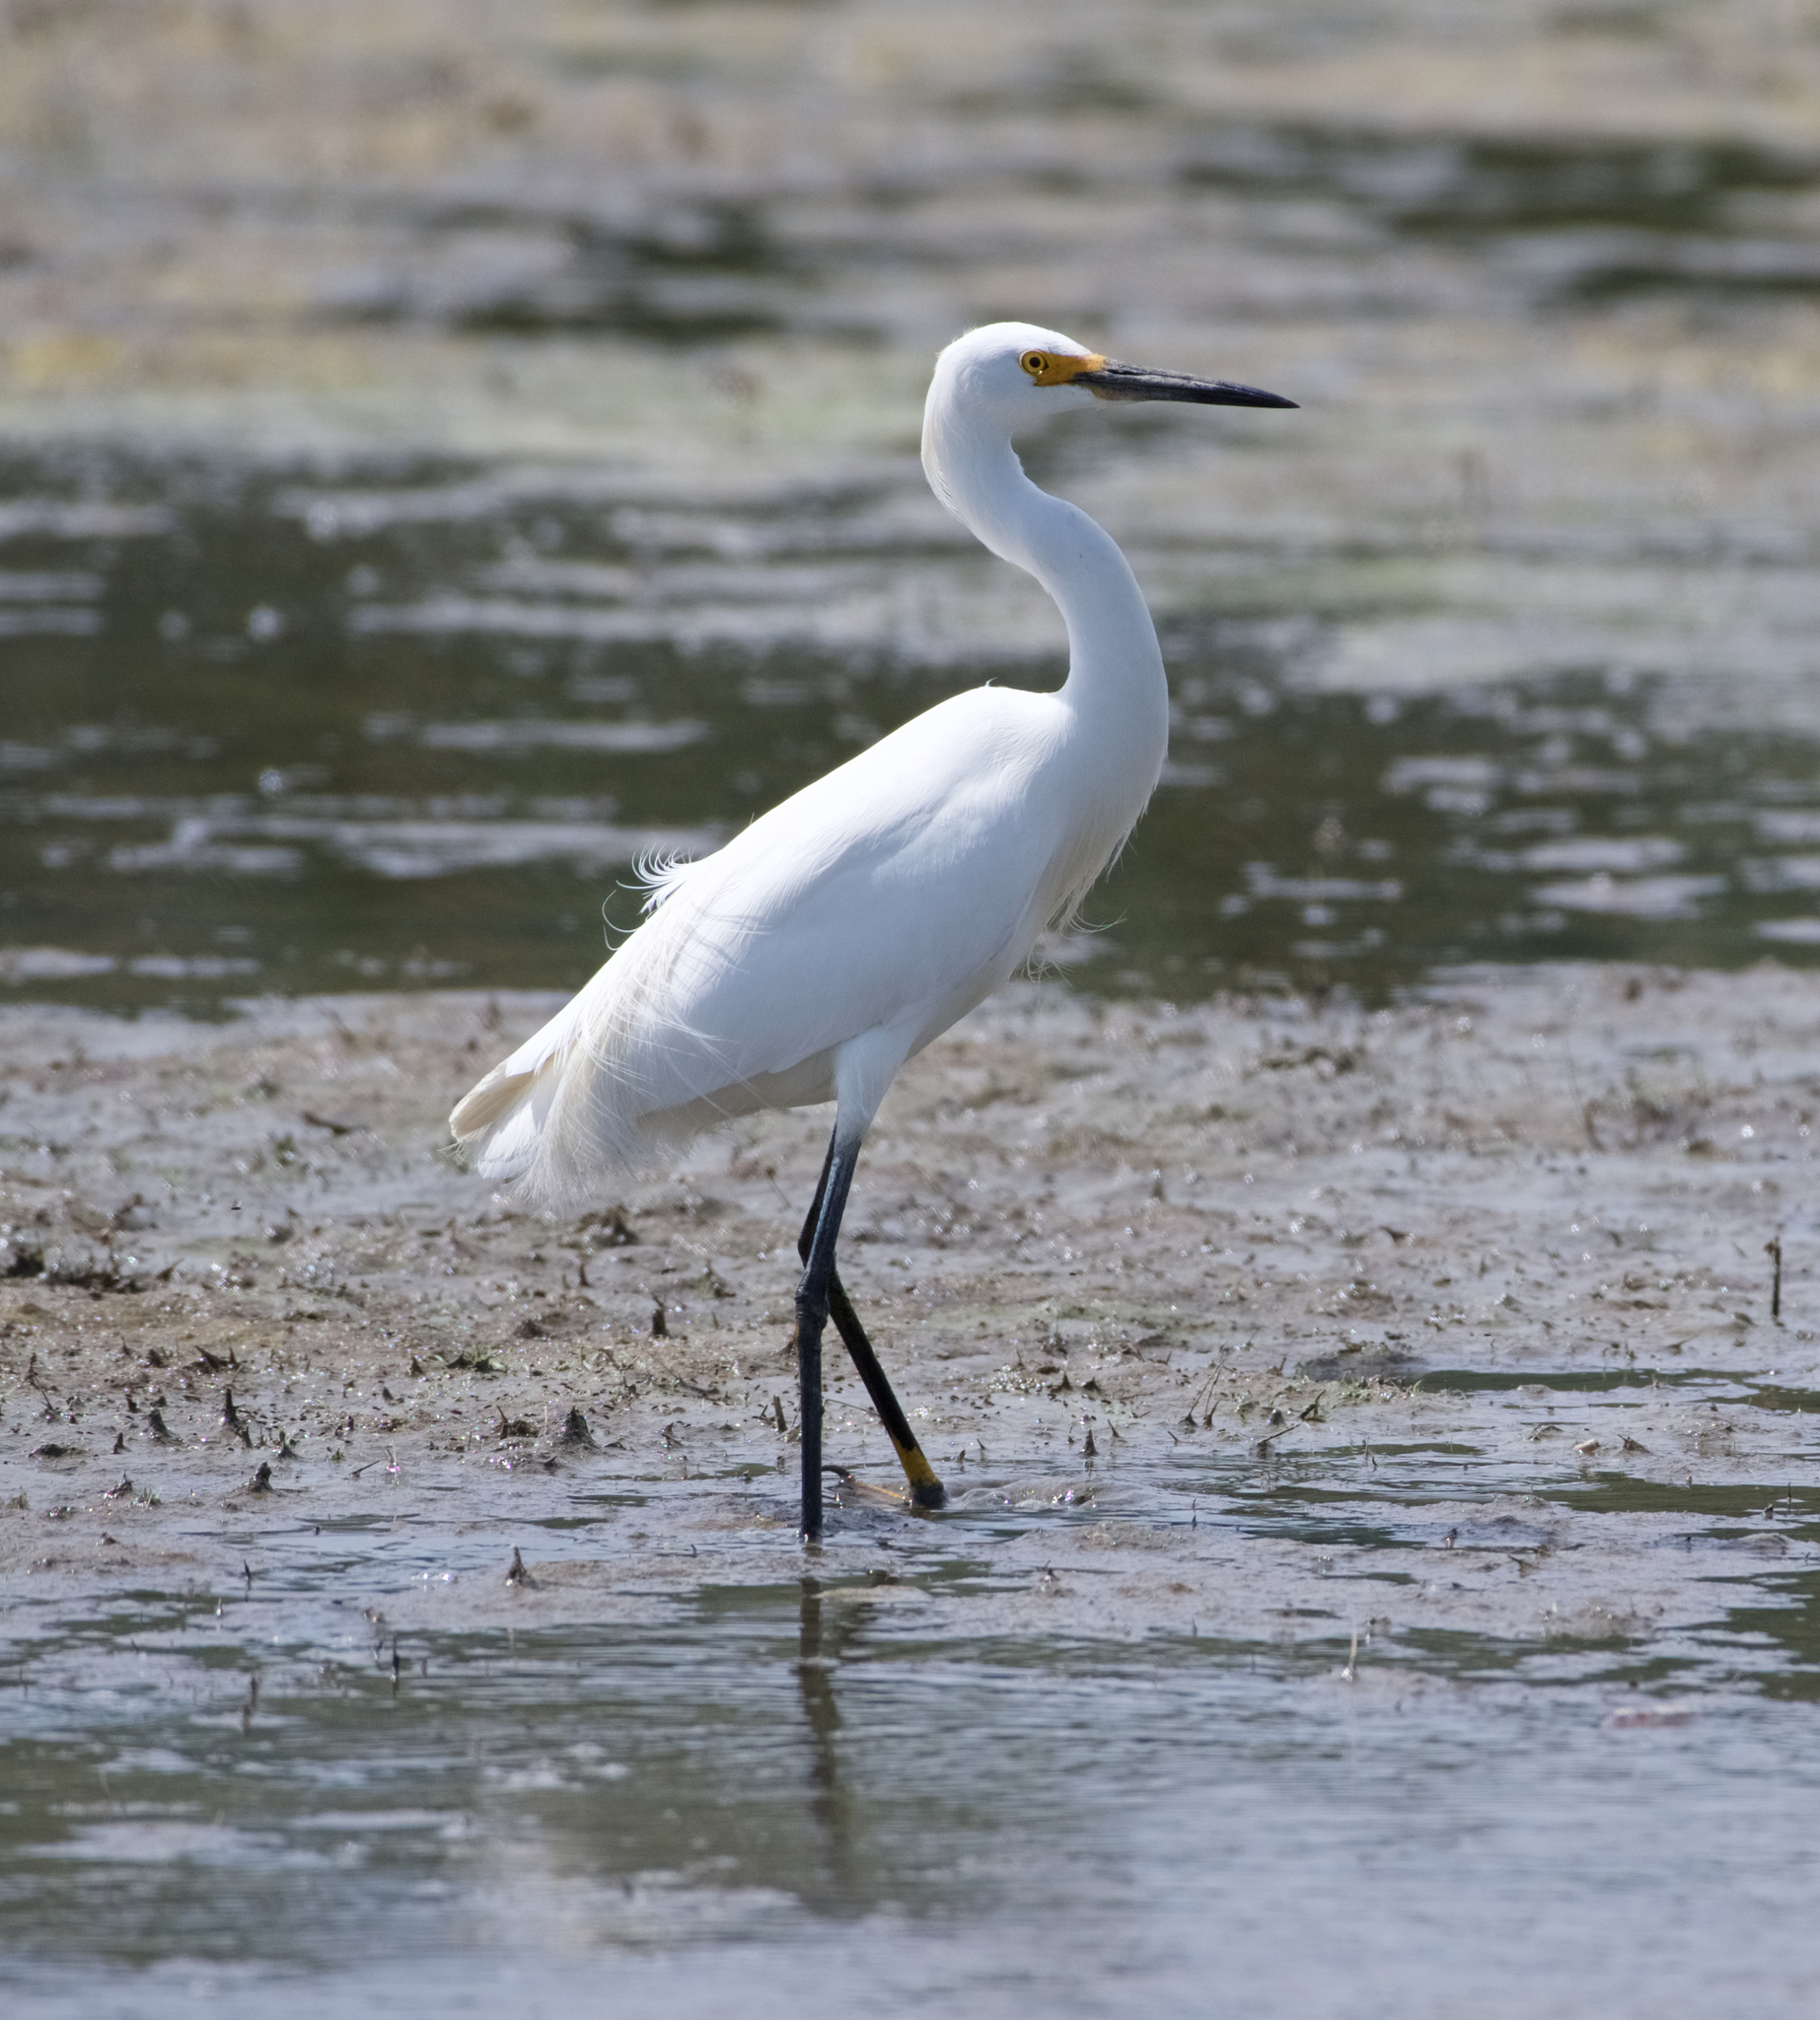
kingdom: Animalia
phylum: Chordata
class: Aves
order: Pelecaniformes
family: Ardeidae
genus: Egretta
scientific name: Egretta thula
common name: Snowy egret
